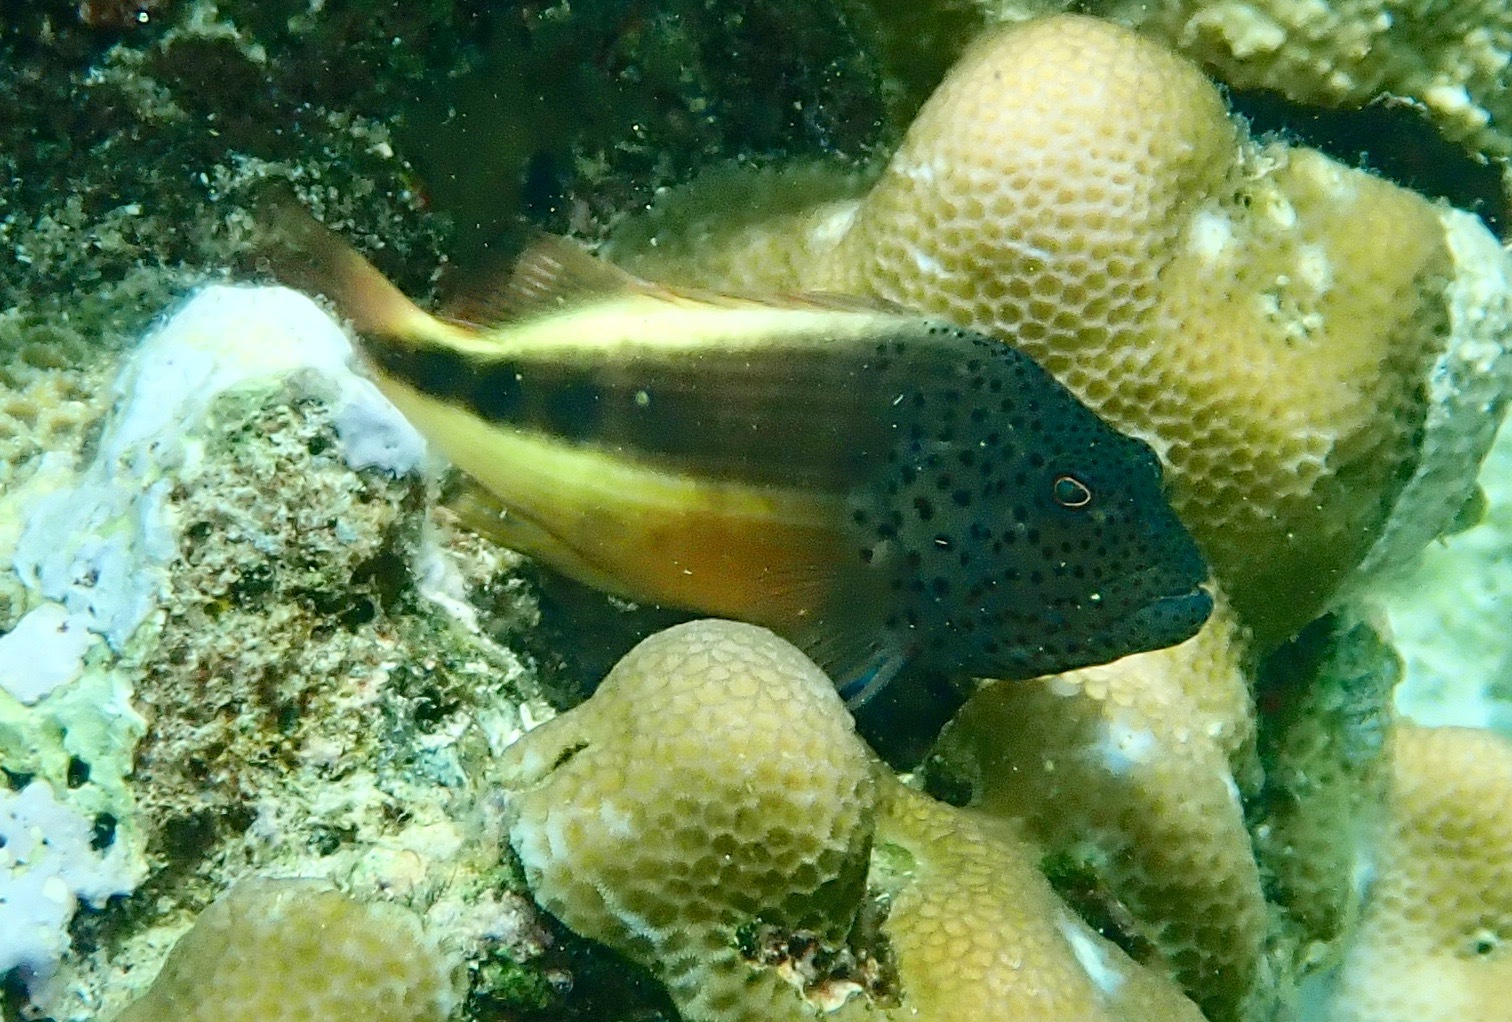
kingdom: Animalia
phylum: Chordata
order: Perciformes
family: Cirrhitidae
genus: Paracirrhites
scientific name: Paracirrhites forsteri
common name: Freckled hawkfish
